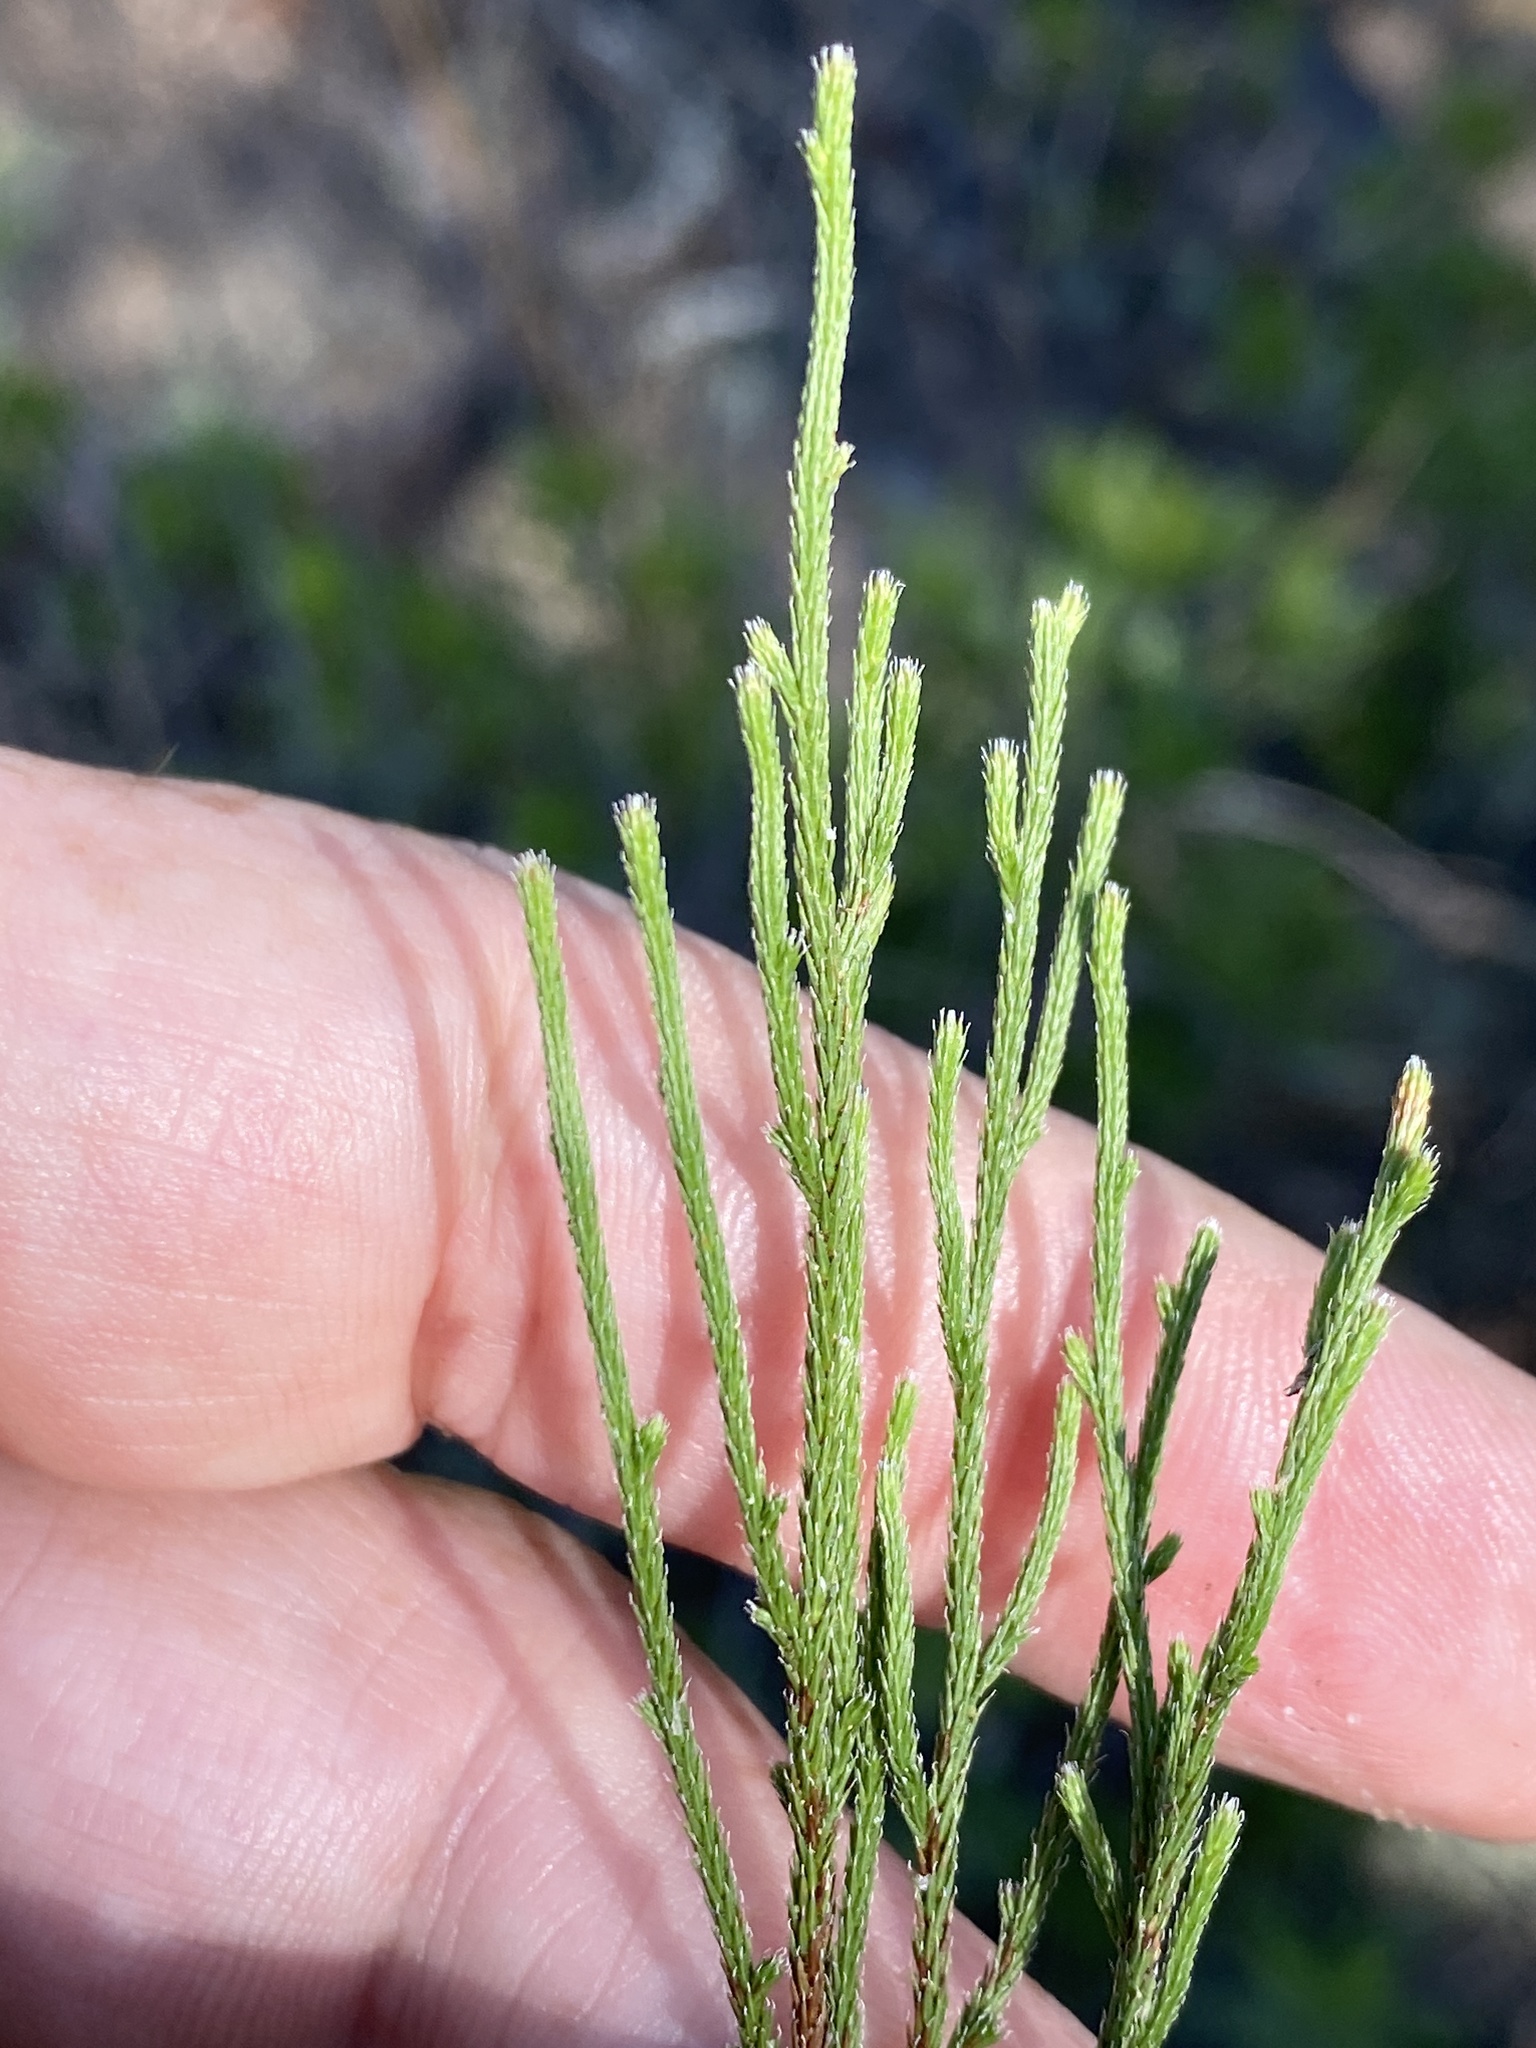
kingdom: Plantae
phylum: Tracheophyta
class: Lycopodiopsida
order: Selaginellales
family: Selaginellaceae
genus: Selaginella
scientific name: Selaginella arenicola
